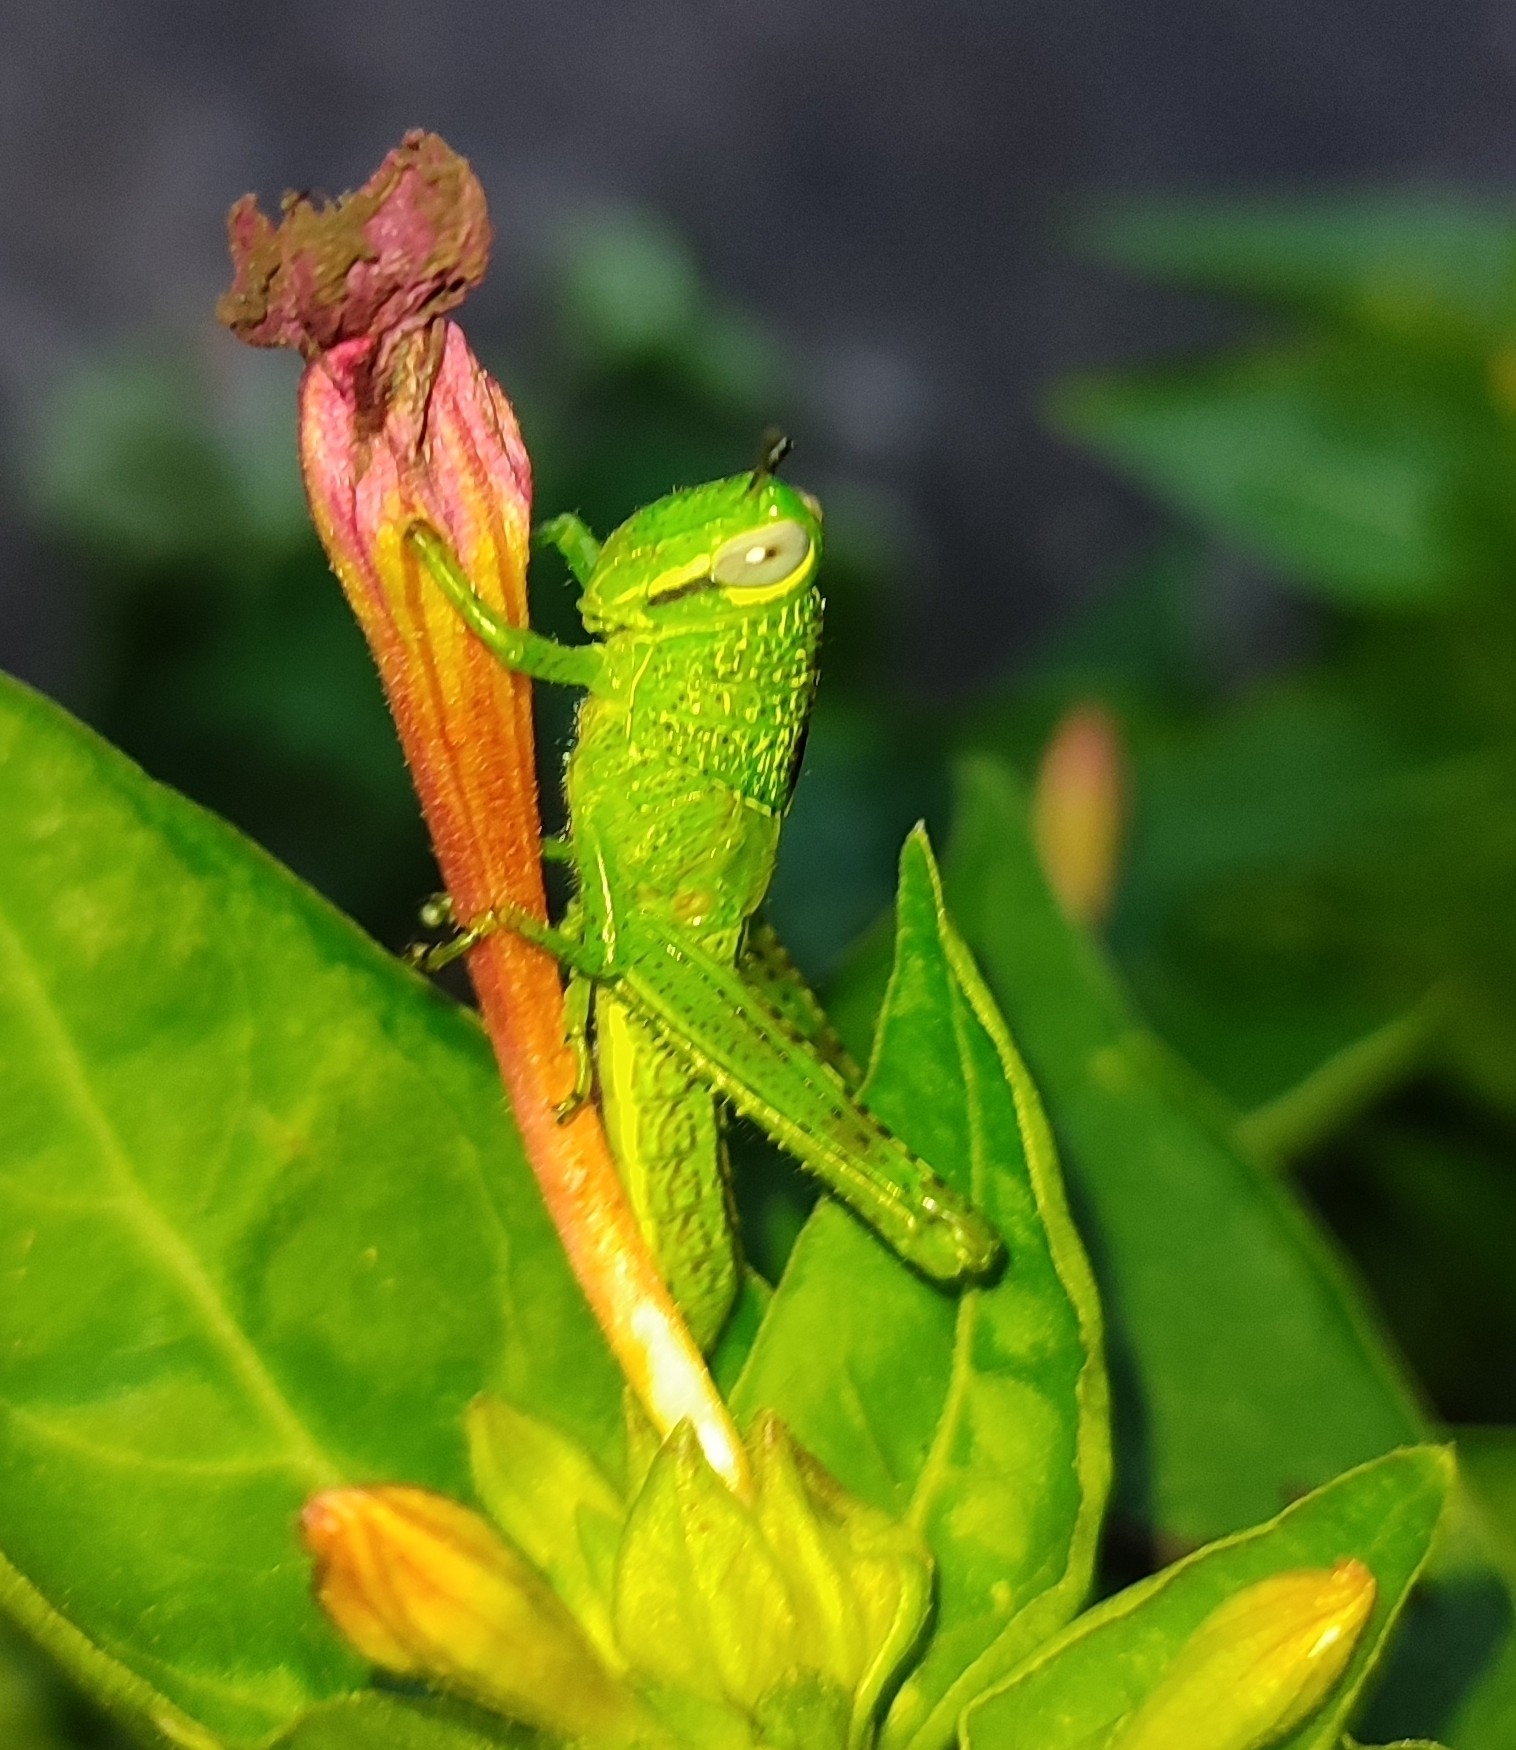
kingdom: Animalia
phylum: Arthropoda
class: Insecta
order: Orthoptera
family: Acrididae
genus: Valanga
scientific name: Valanga nigricornis
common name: Javanese bird grasshopper
